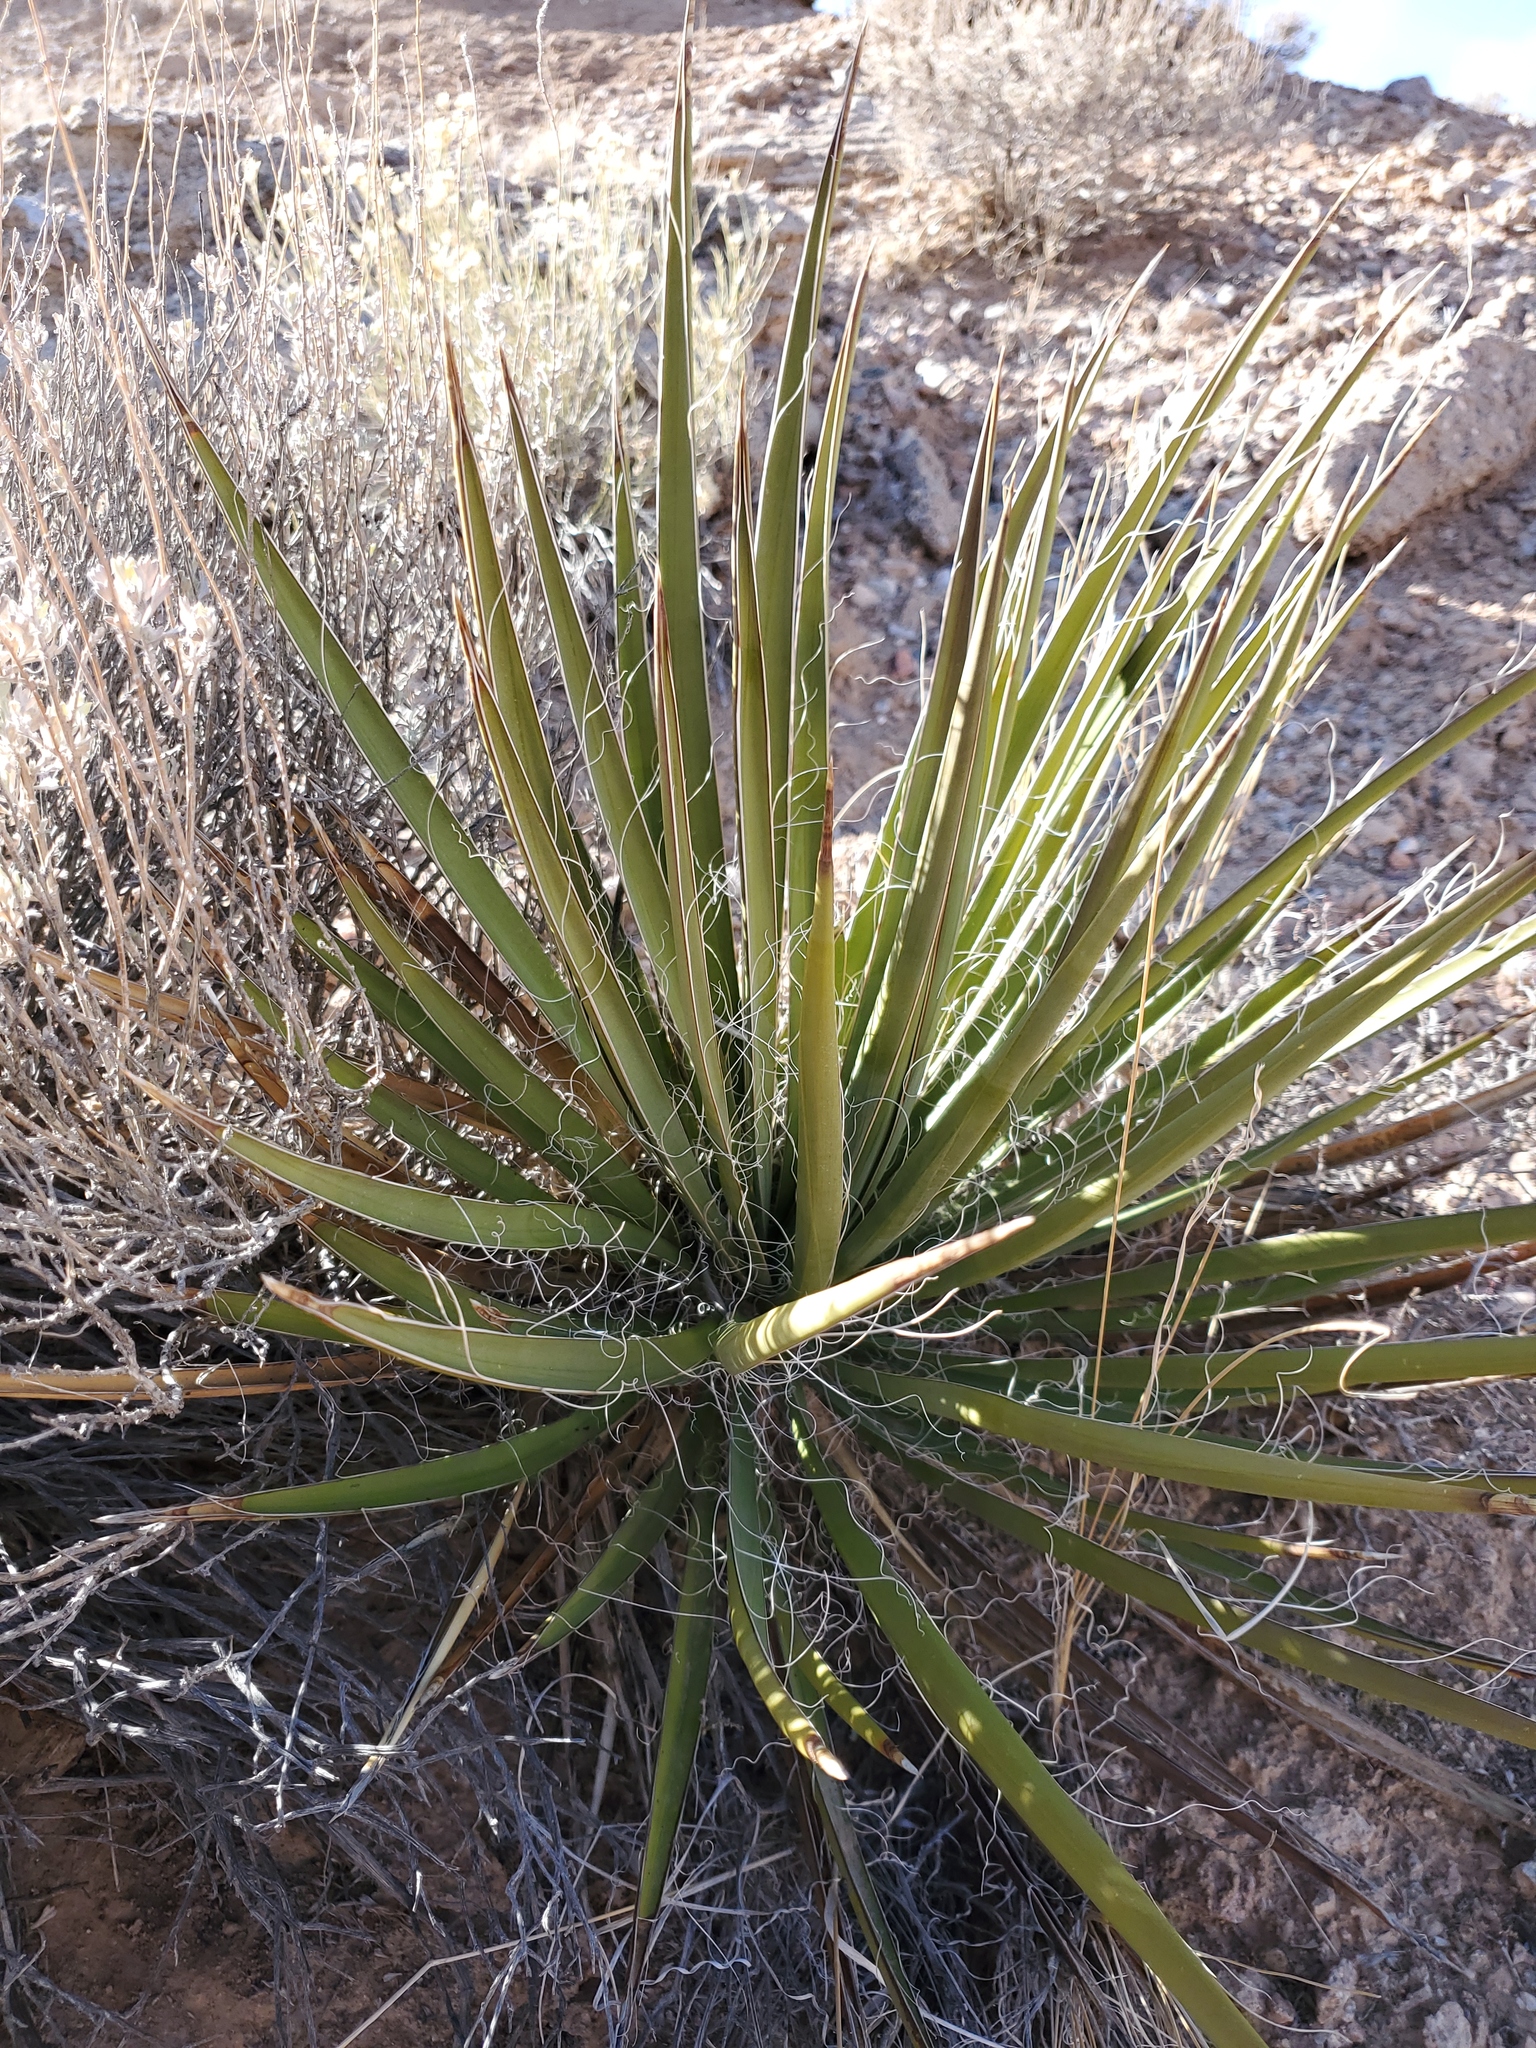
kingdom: Plantae
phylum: Tracheophyta
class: Liliopsida
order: Asparagales
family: Asparagaceae
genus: Yucca
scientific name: Yucca baccata
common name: Banana yucca
